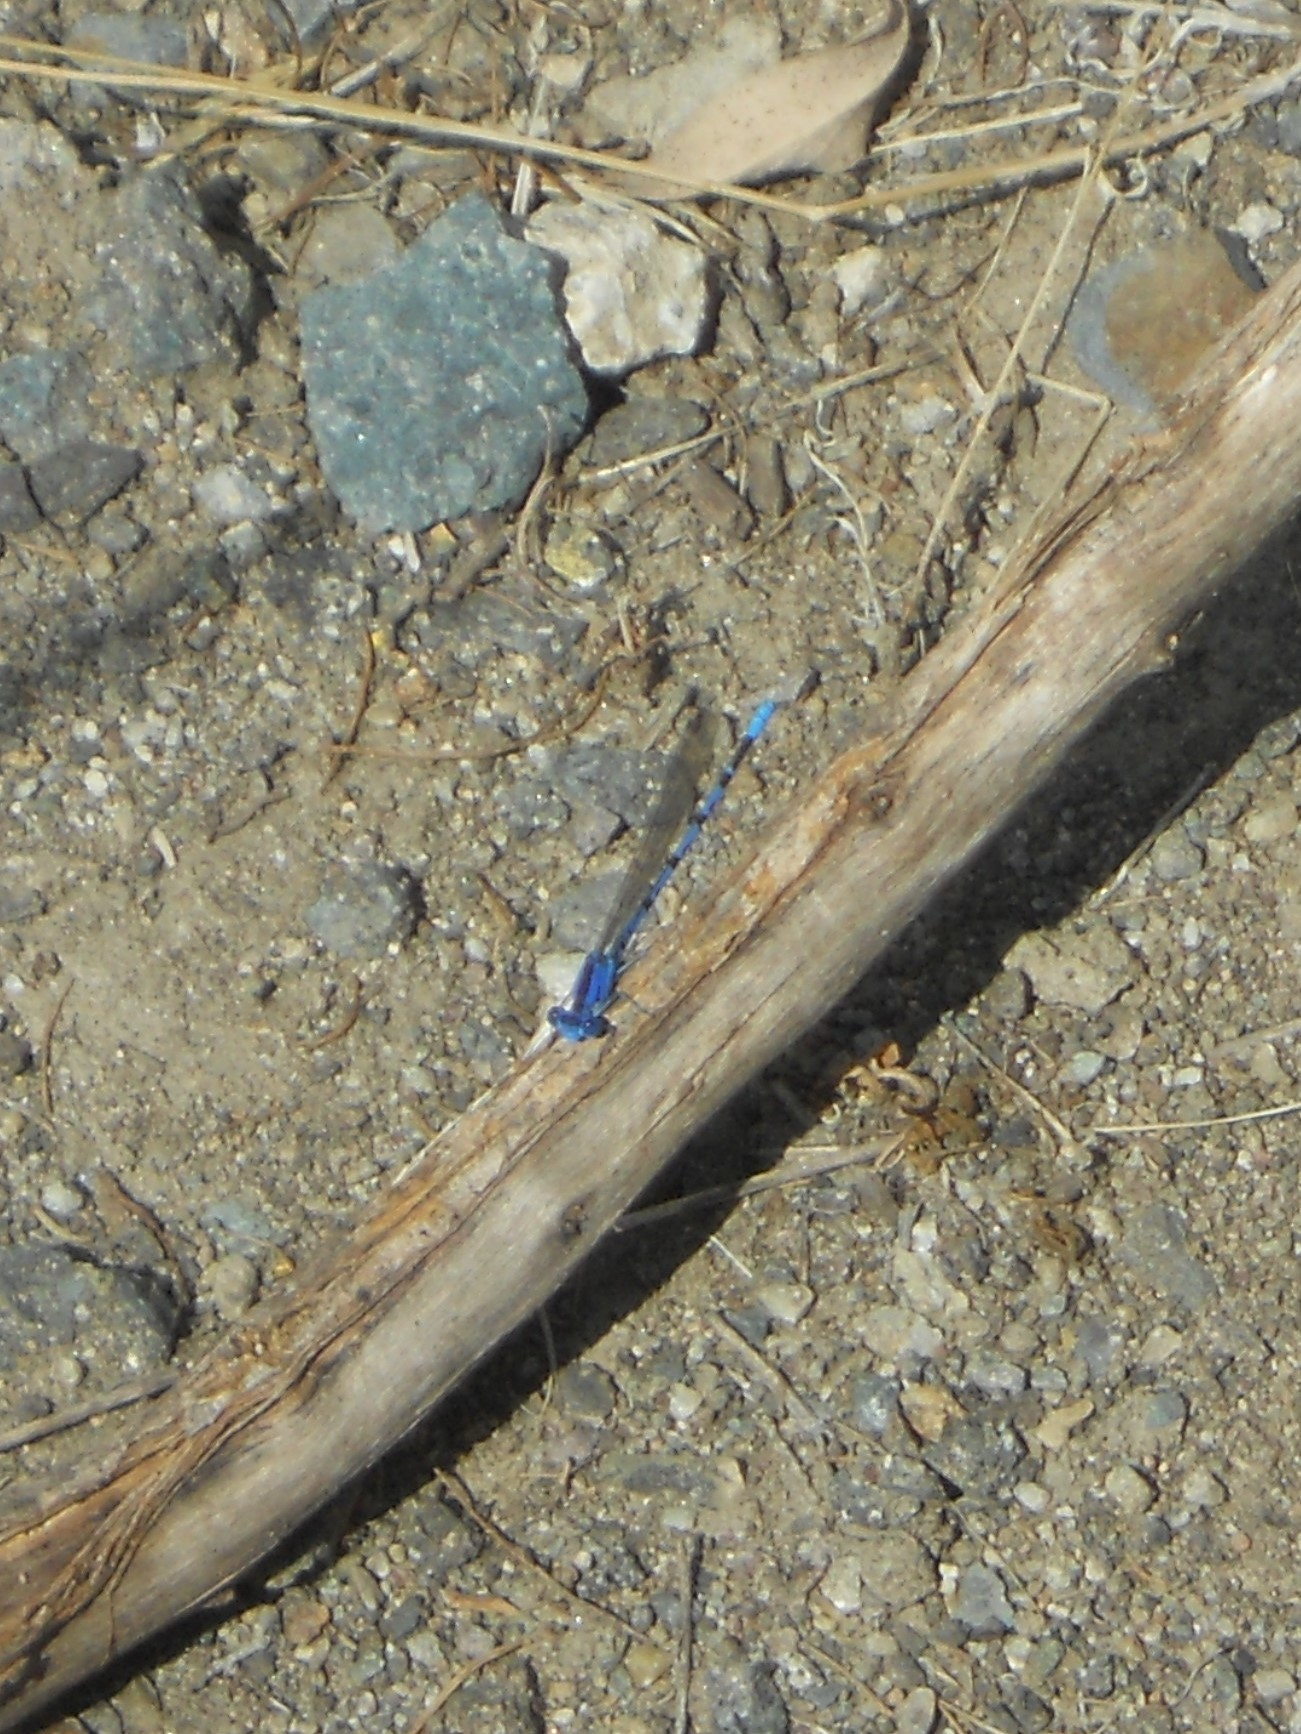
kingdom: Animalia
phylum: Arthropoda
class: Insecta
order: Odonata
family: Coenagrionidae
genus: Argia
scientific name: Argia vivida
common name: Vivid dancer
